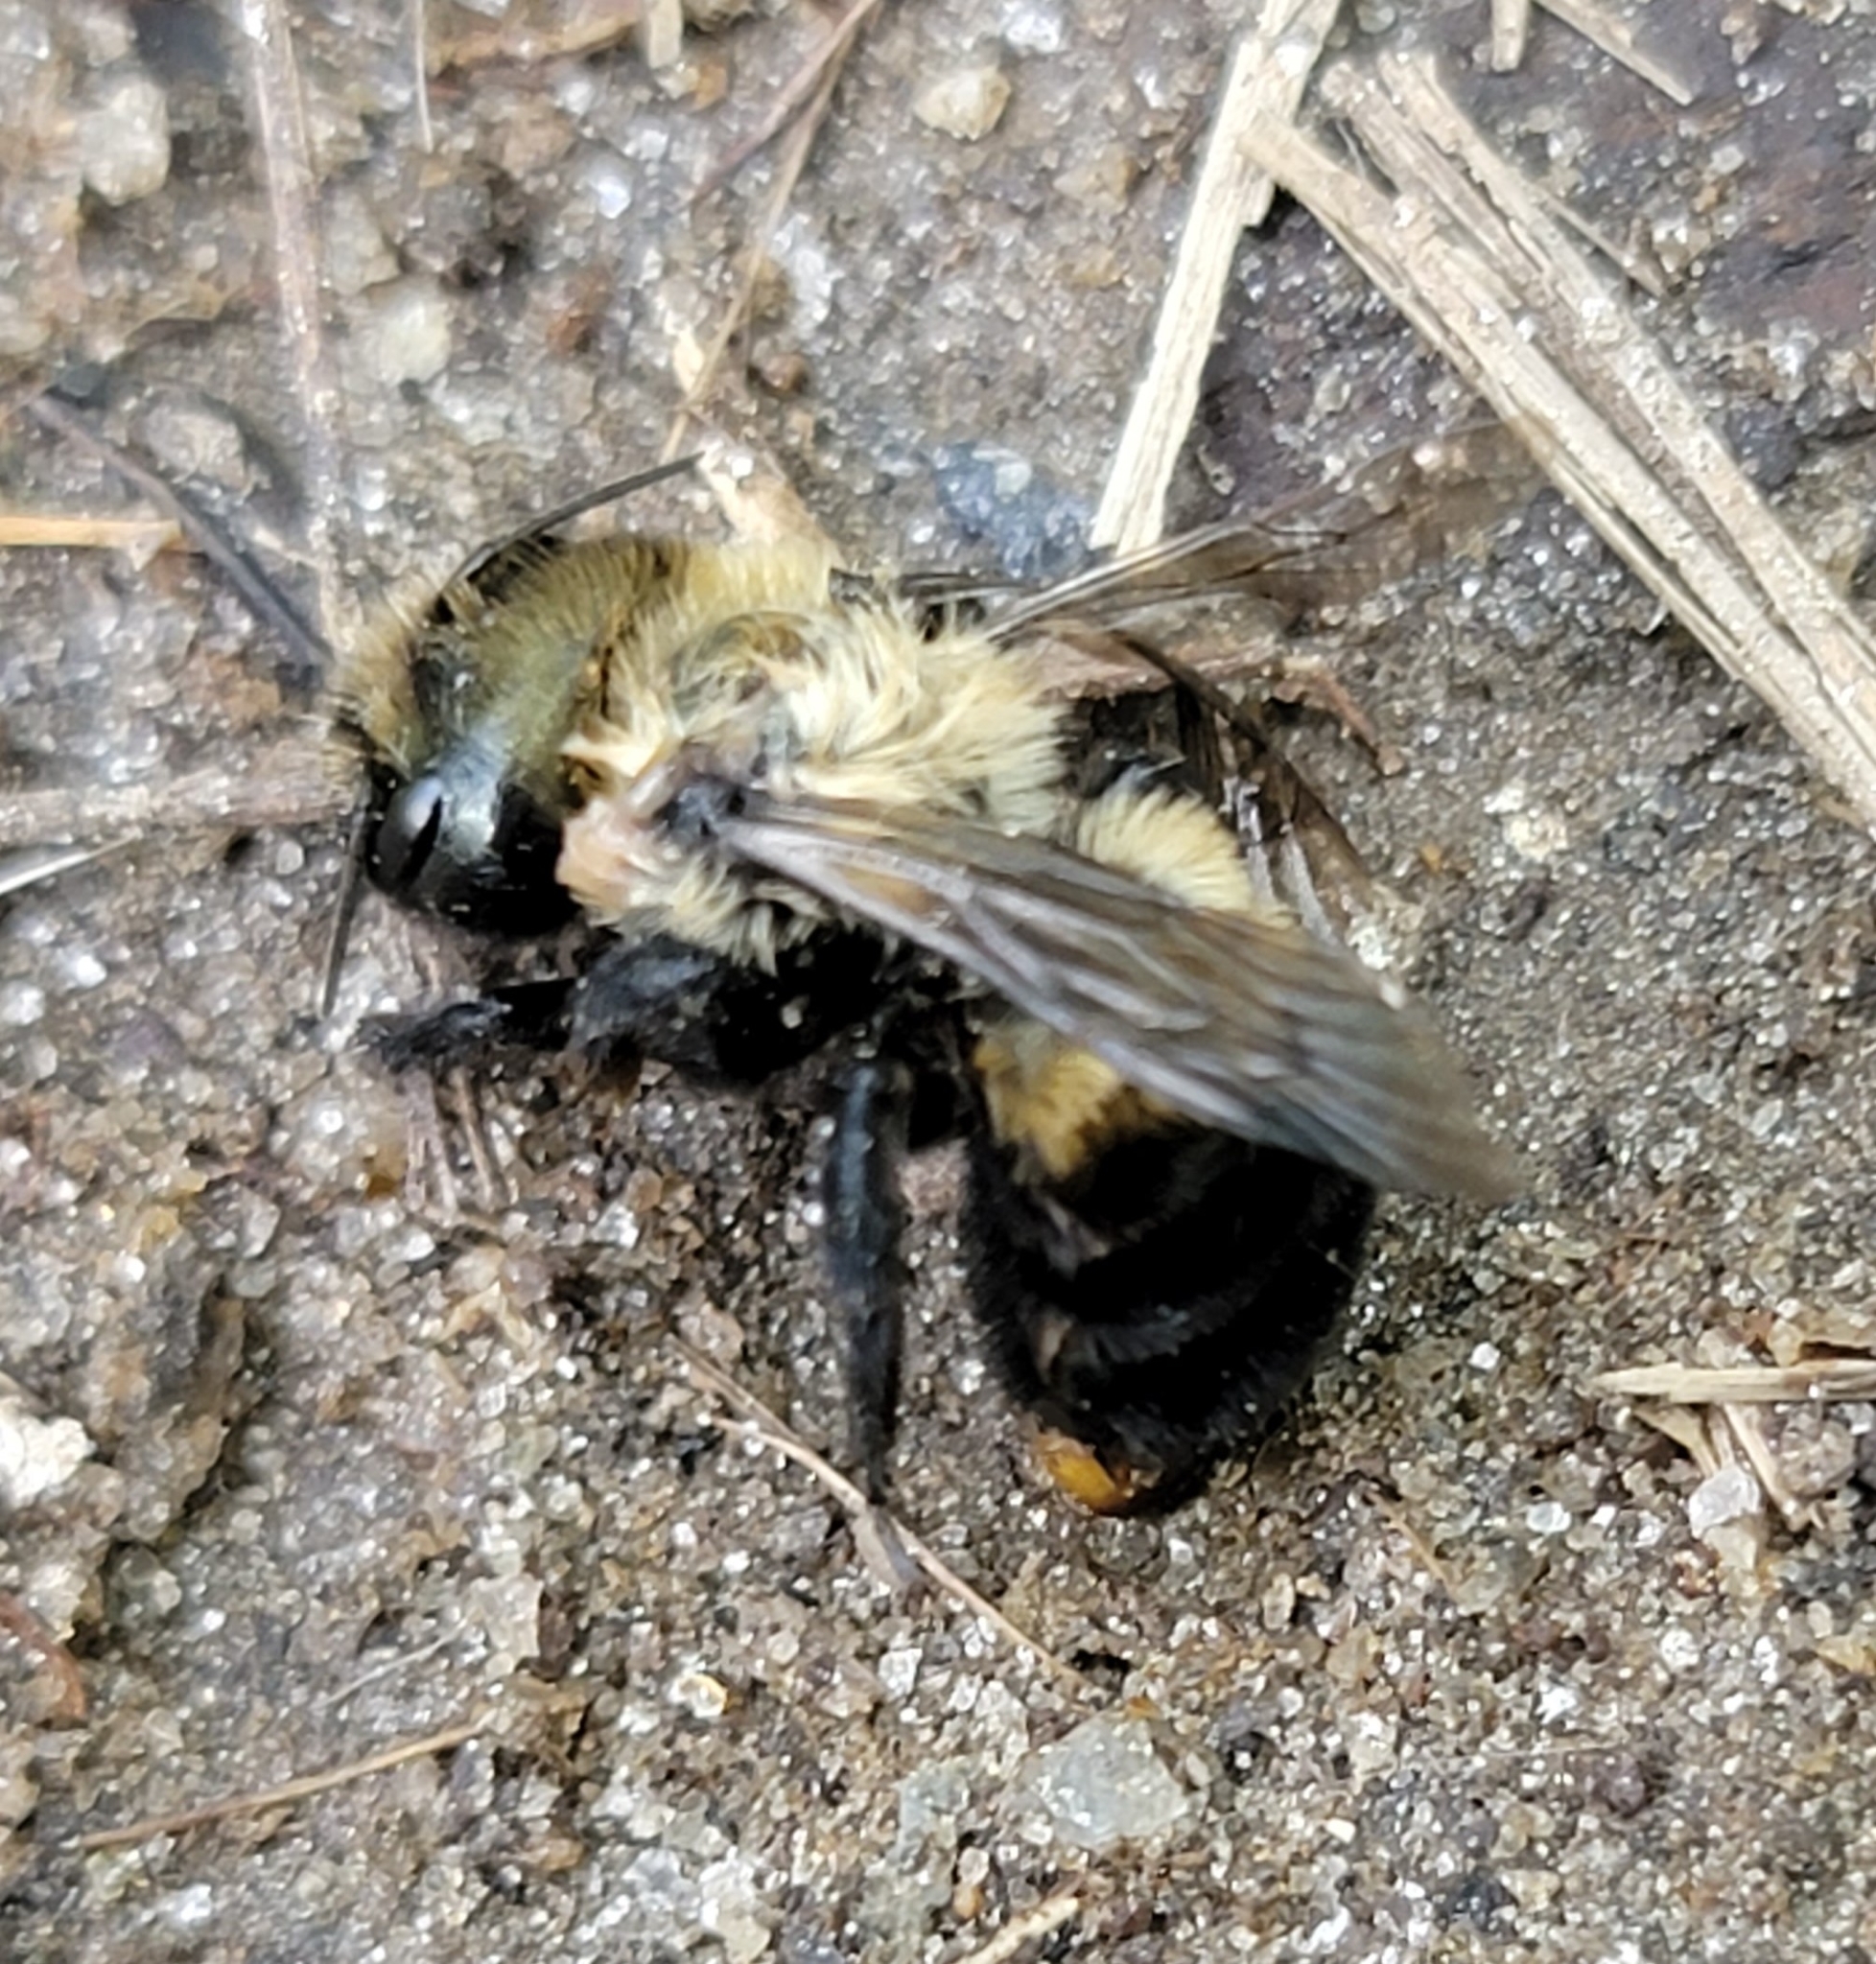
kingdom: Animalia
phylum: Arthropoda
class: Insecta
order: Hymenoptera
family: Megachilidae
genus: Osmia
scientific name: Osmia bucephala
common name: Bufflehead mason bee
